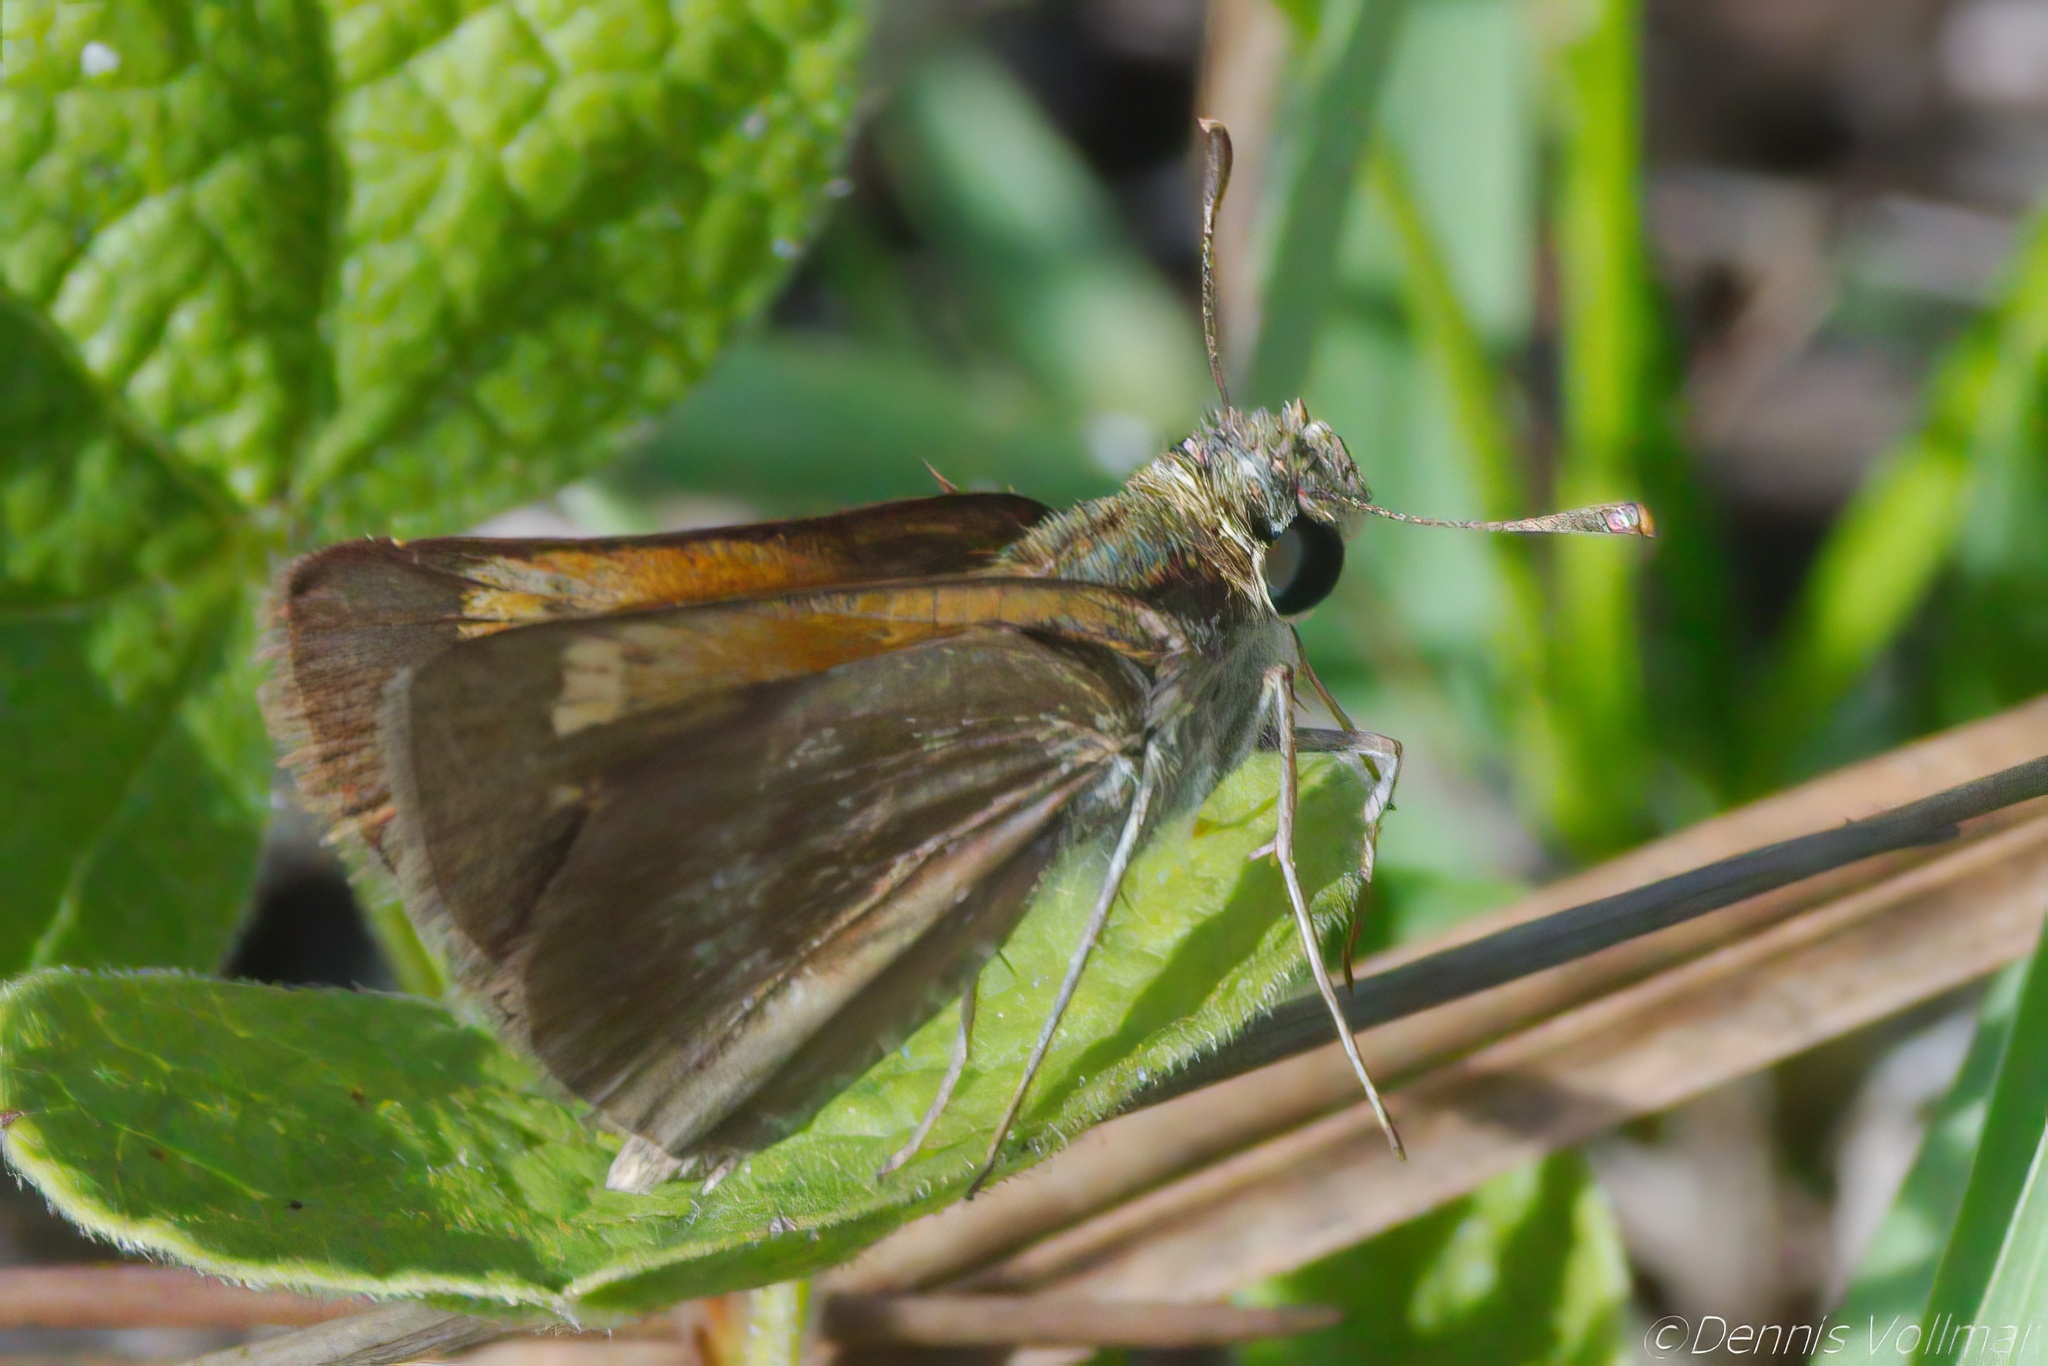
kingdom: Animalia
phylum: Arthropoda
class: Insecta
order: Lepidoptera
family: Hesperiidae
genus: Polites
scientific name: Polites baracoa
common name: Baracoa skipper
